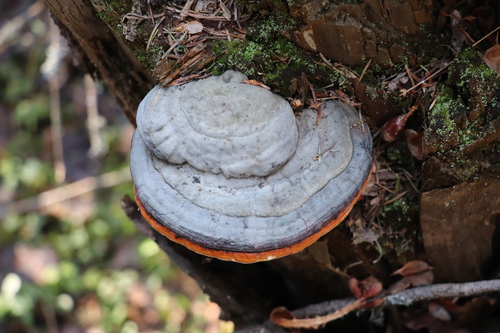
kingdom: Fungi
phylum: Basidiomycota
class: Agaricomycetes
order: Polyporales
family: Fomitopsidaceae
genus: Fomitopsis
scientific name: Fomitopsis pinicola
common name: Red-belted bracket
